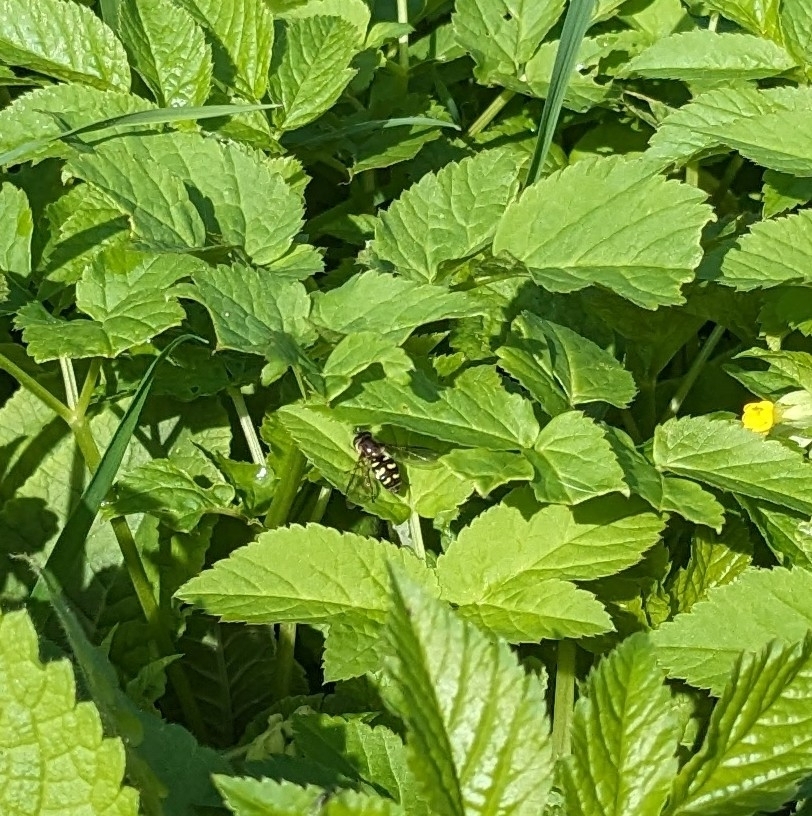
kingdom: Animalia
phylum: Arthropoda
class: Insecta
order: Diptera
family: Syrphidae
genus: Eupeodes
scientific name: Eupeodes
